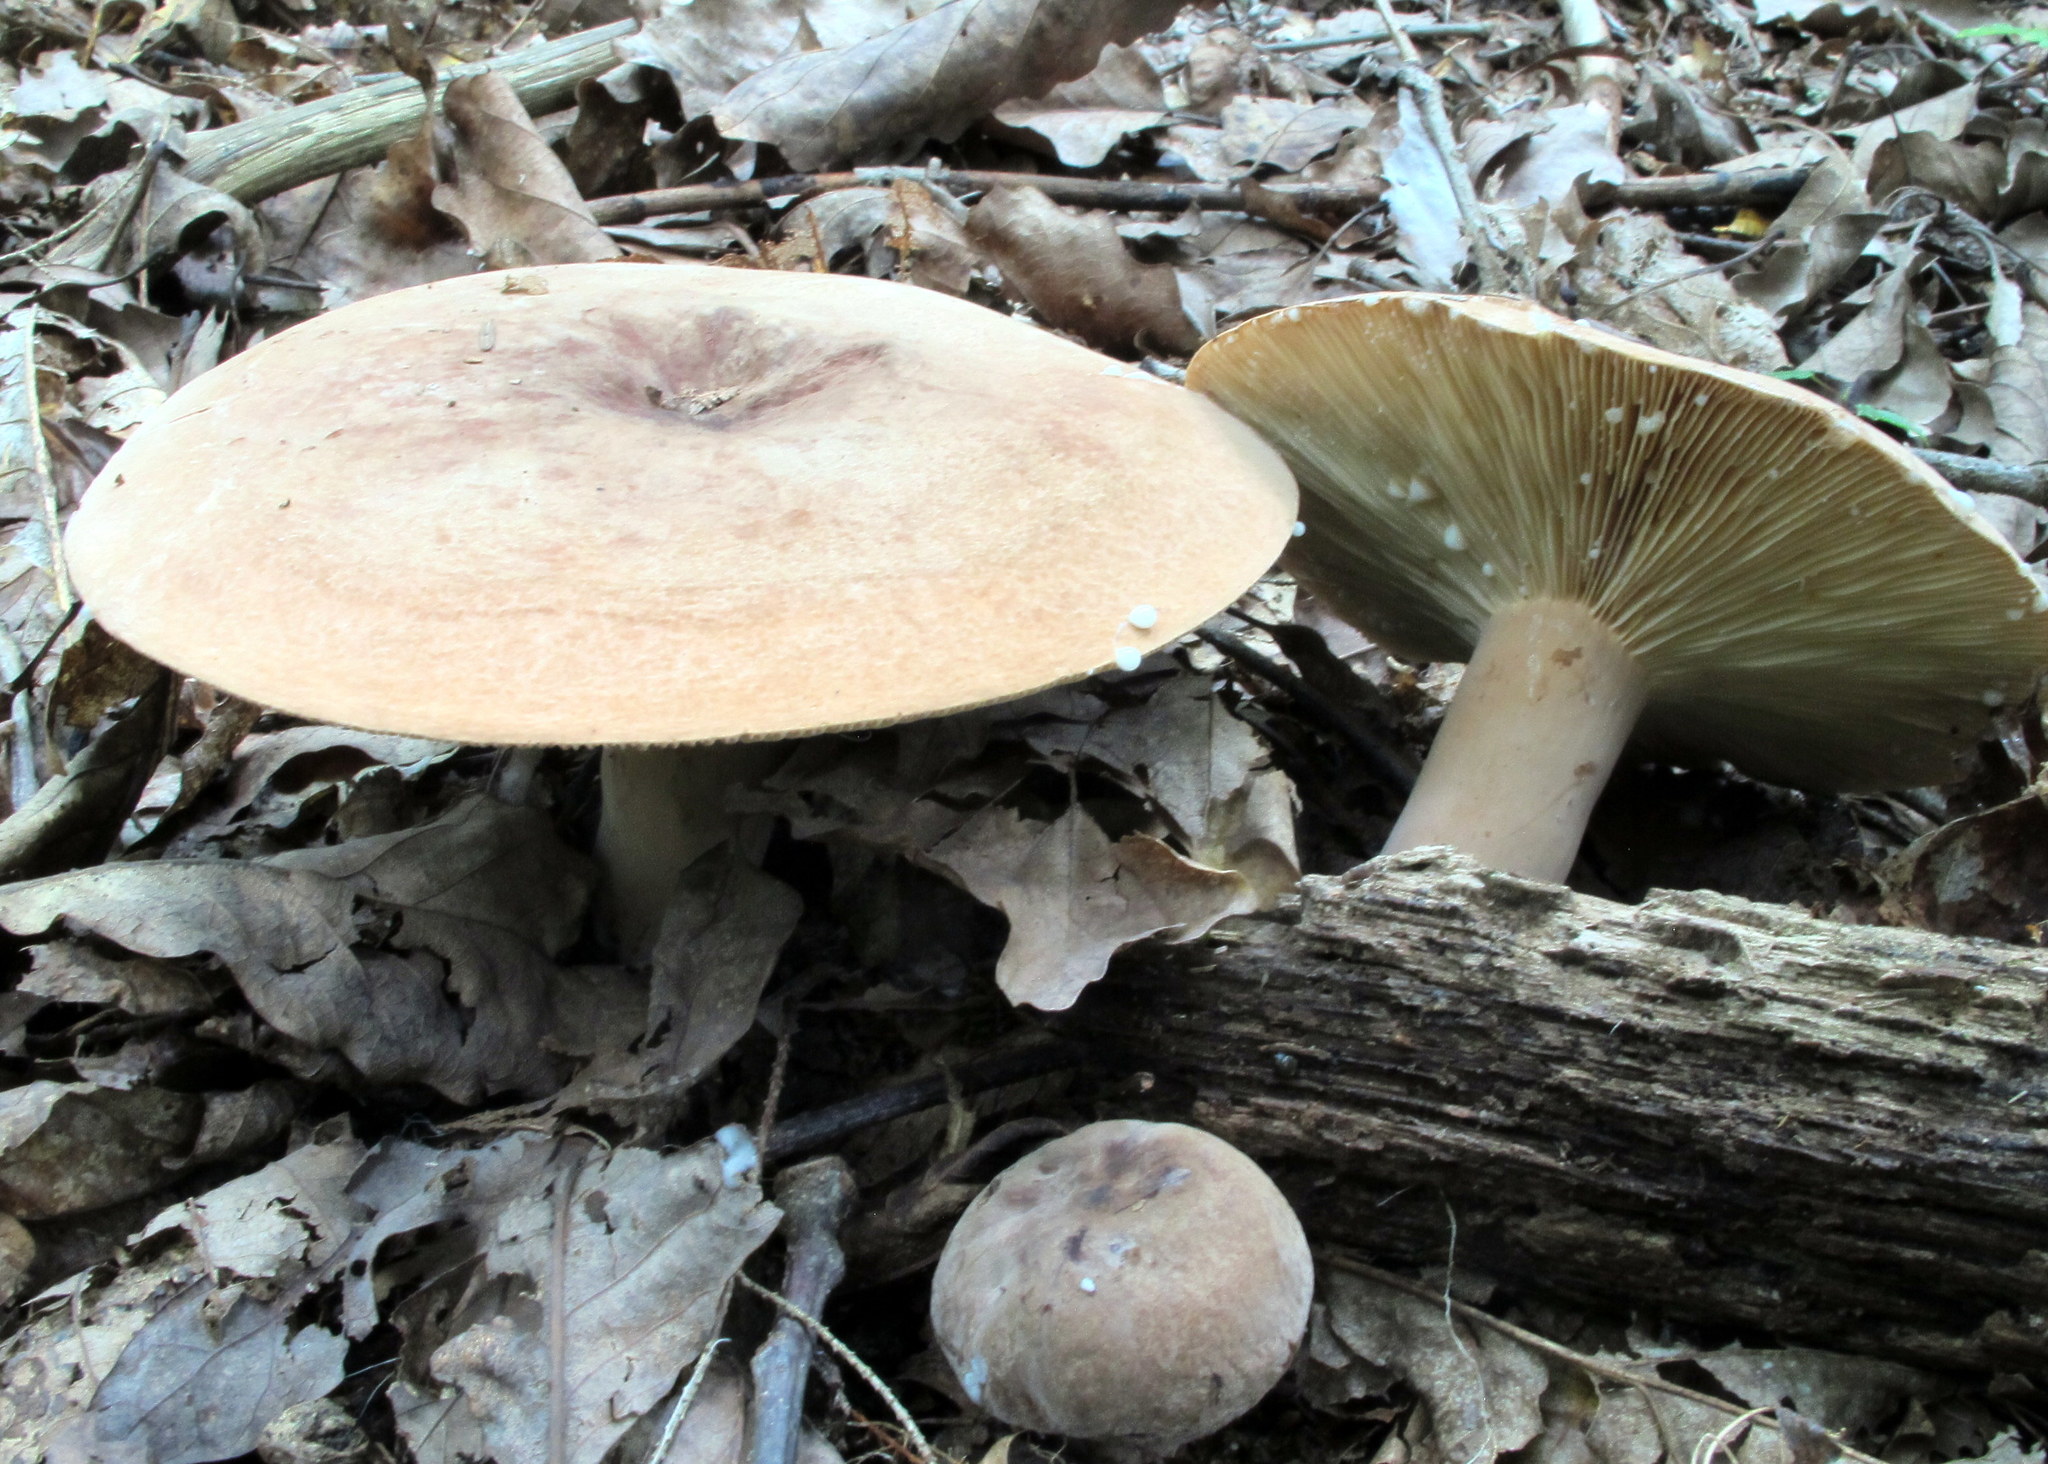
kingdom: Fungi
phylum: Basidiomycota
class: Agaricomycetes
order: Russulales
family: Russulaceae
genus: Lactarius
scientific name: Lactarius corrugis
